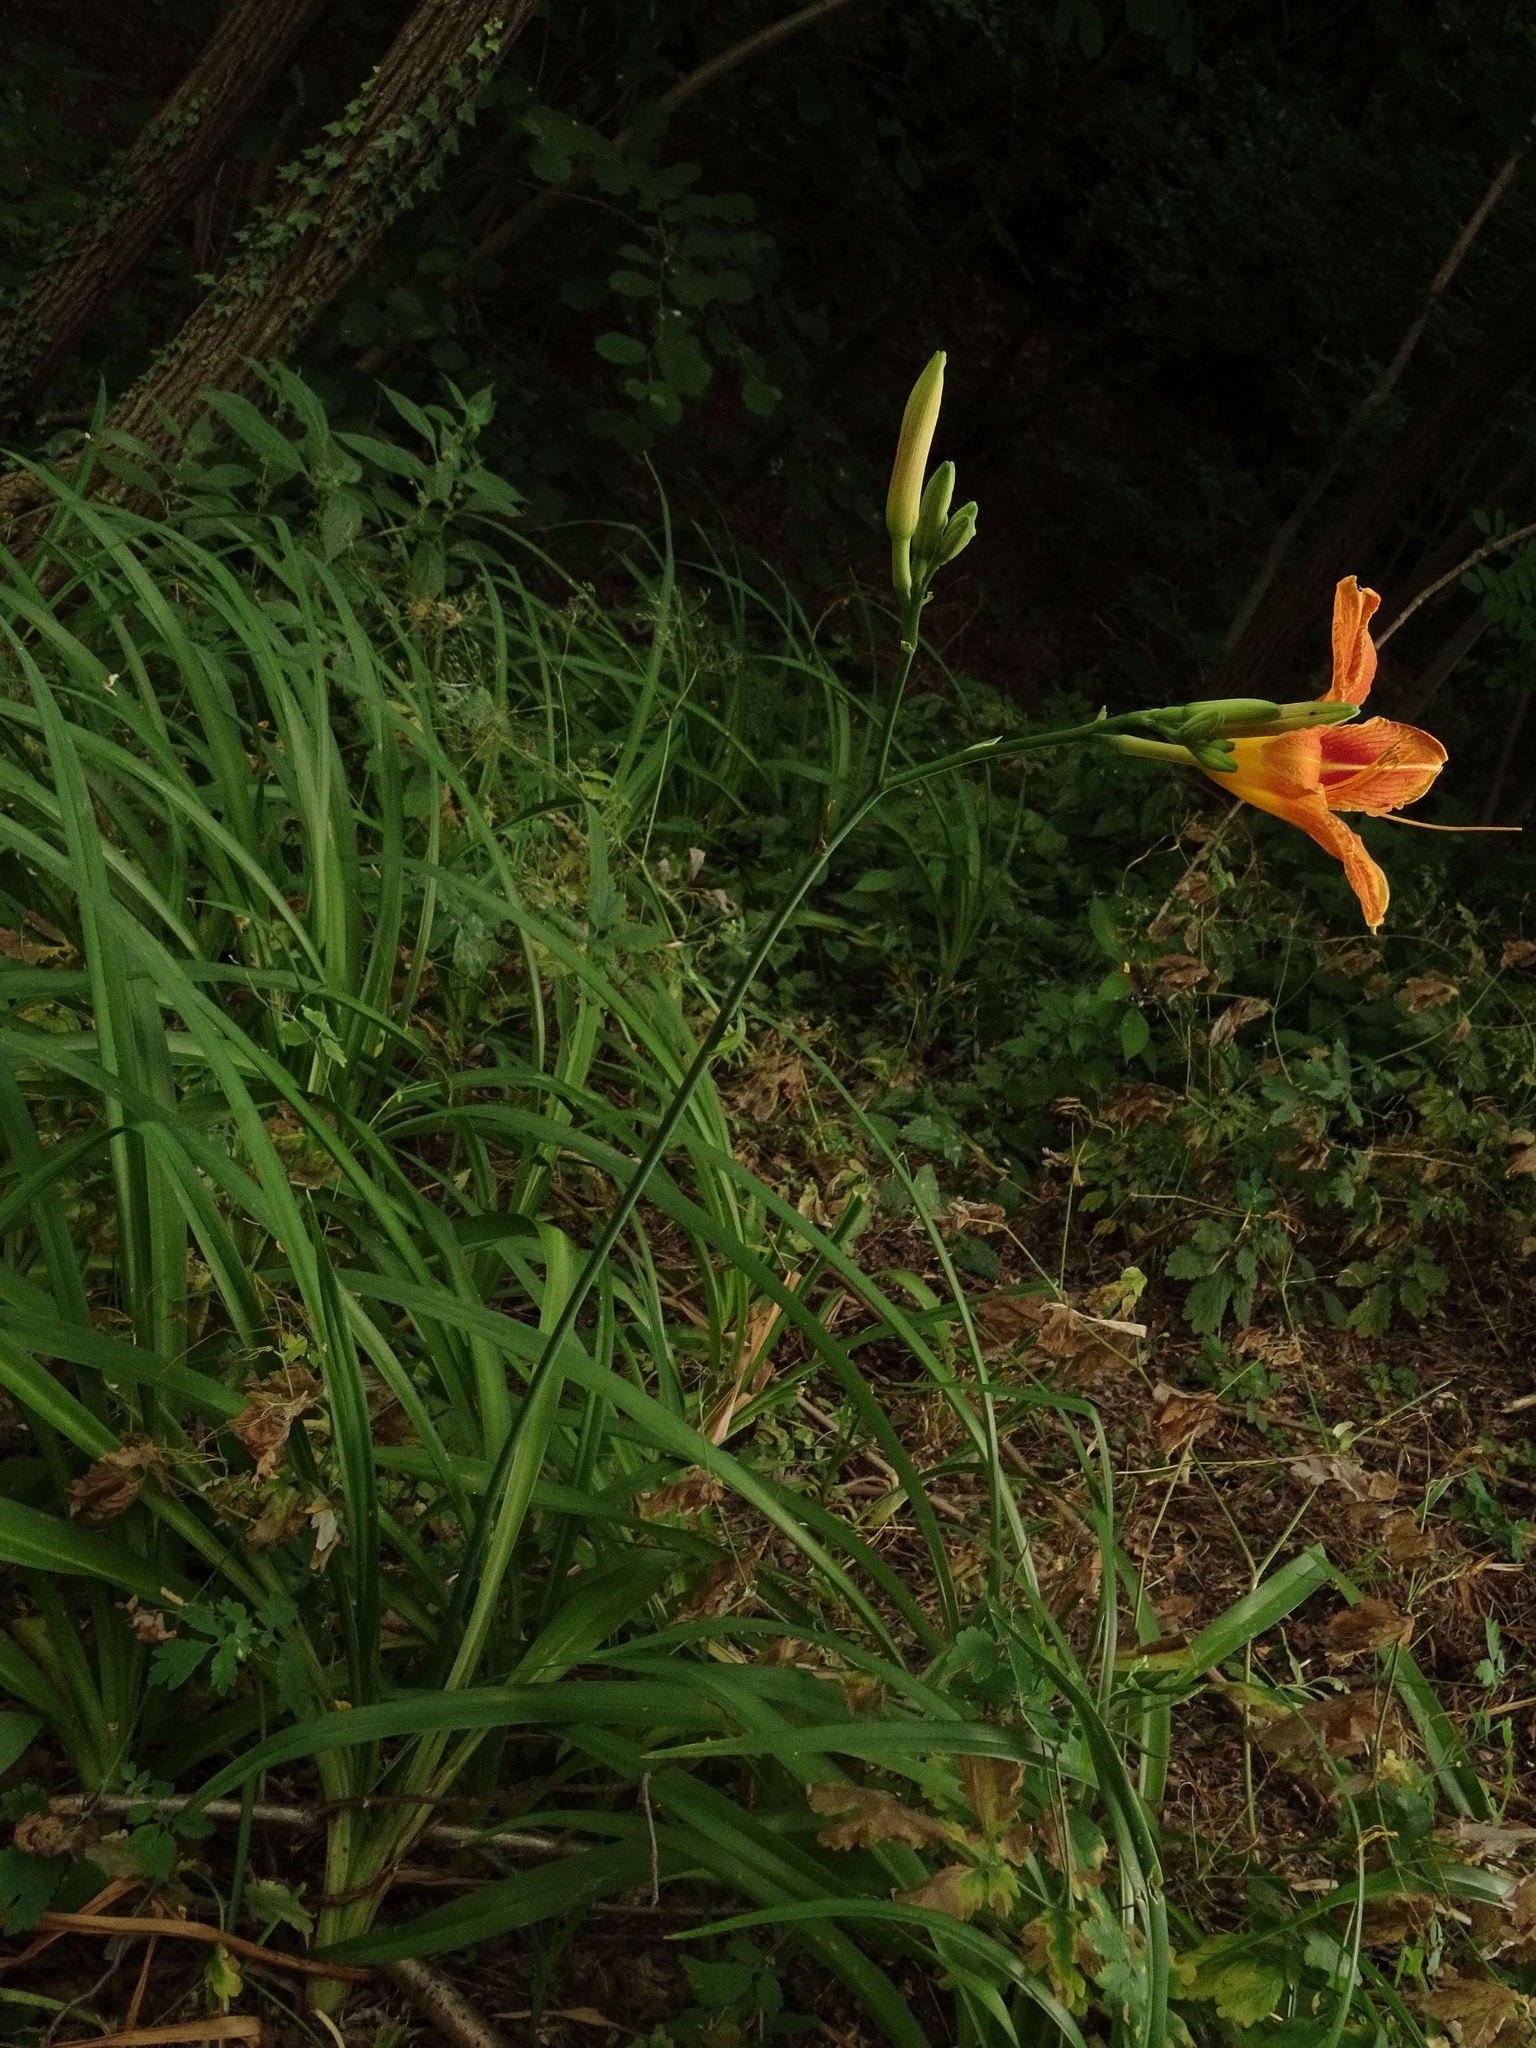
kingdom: Plantae
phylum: Tracheophyta
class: Liliopsida
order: Asparagales
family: Asphodelaceae
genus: Hemerocallis
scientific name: Hemerocallis fulva
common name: Orange day-lily
